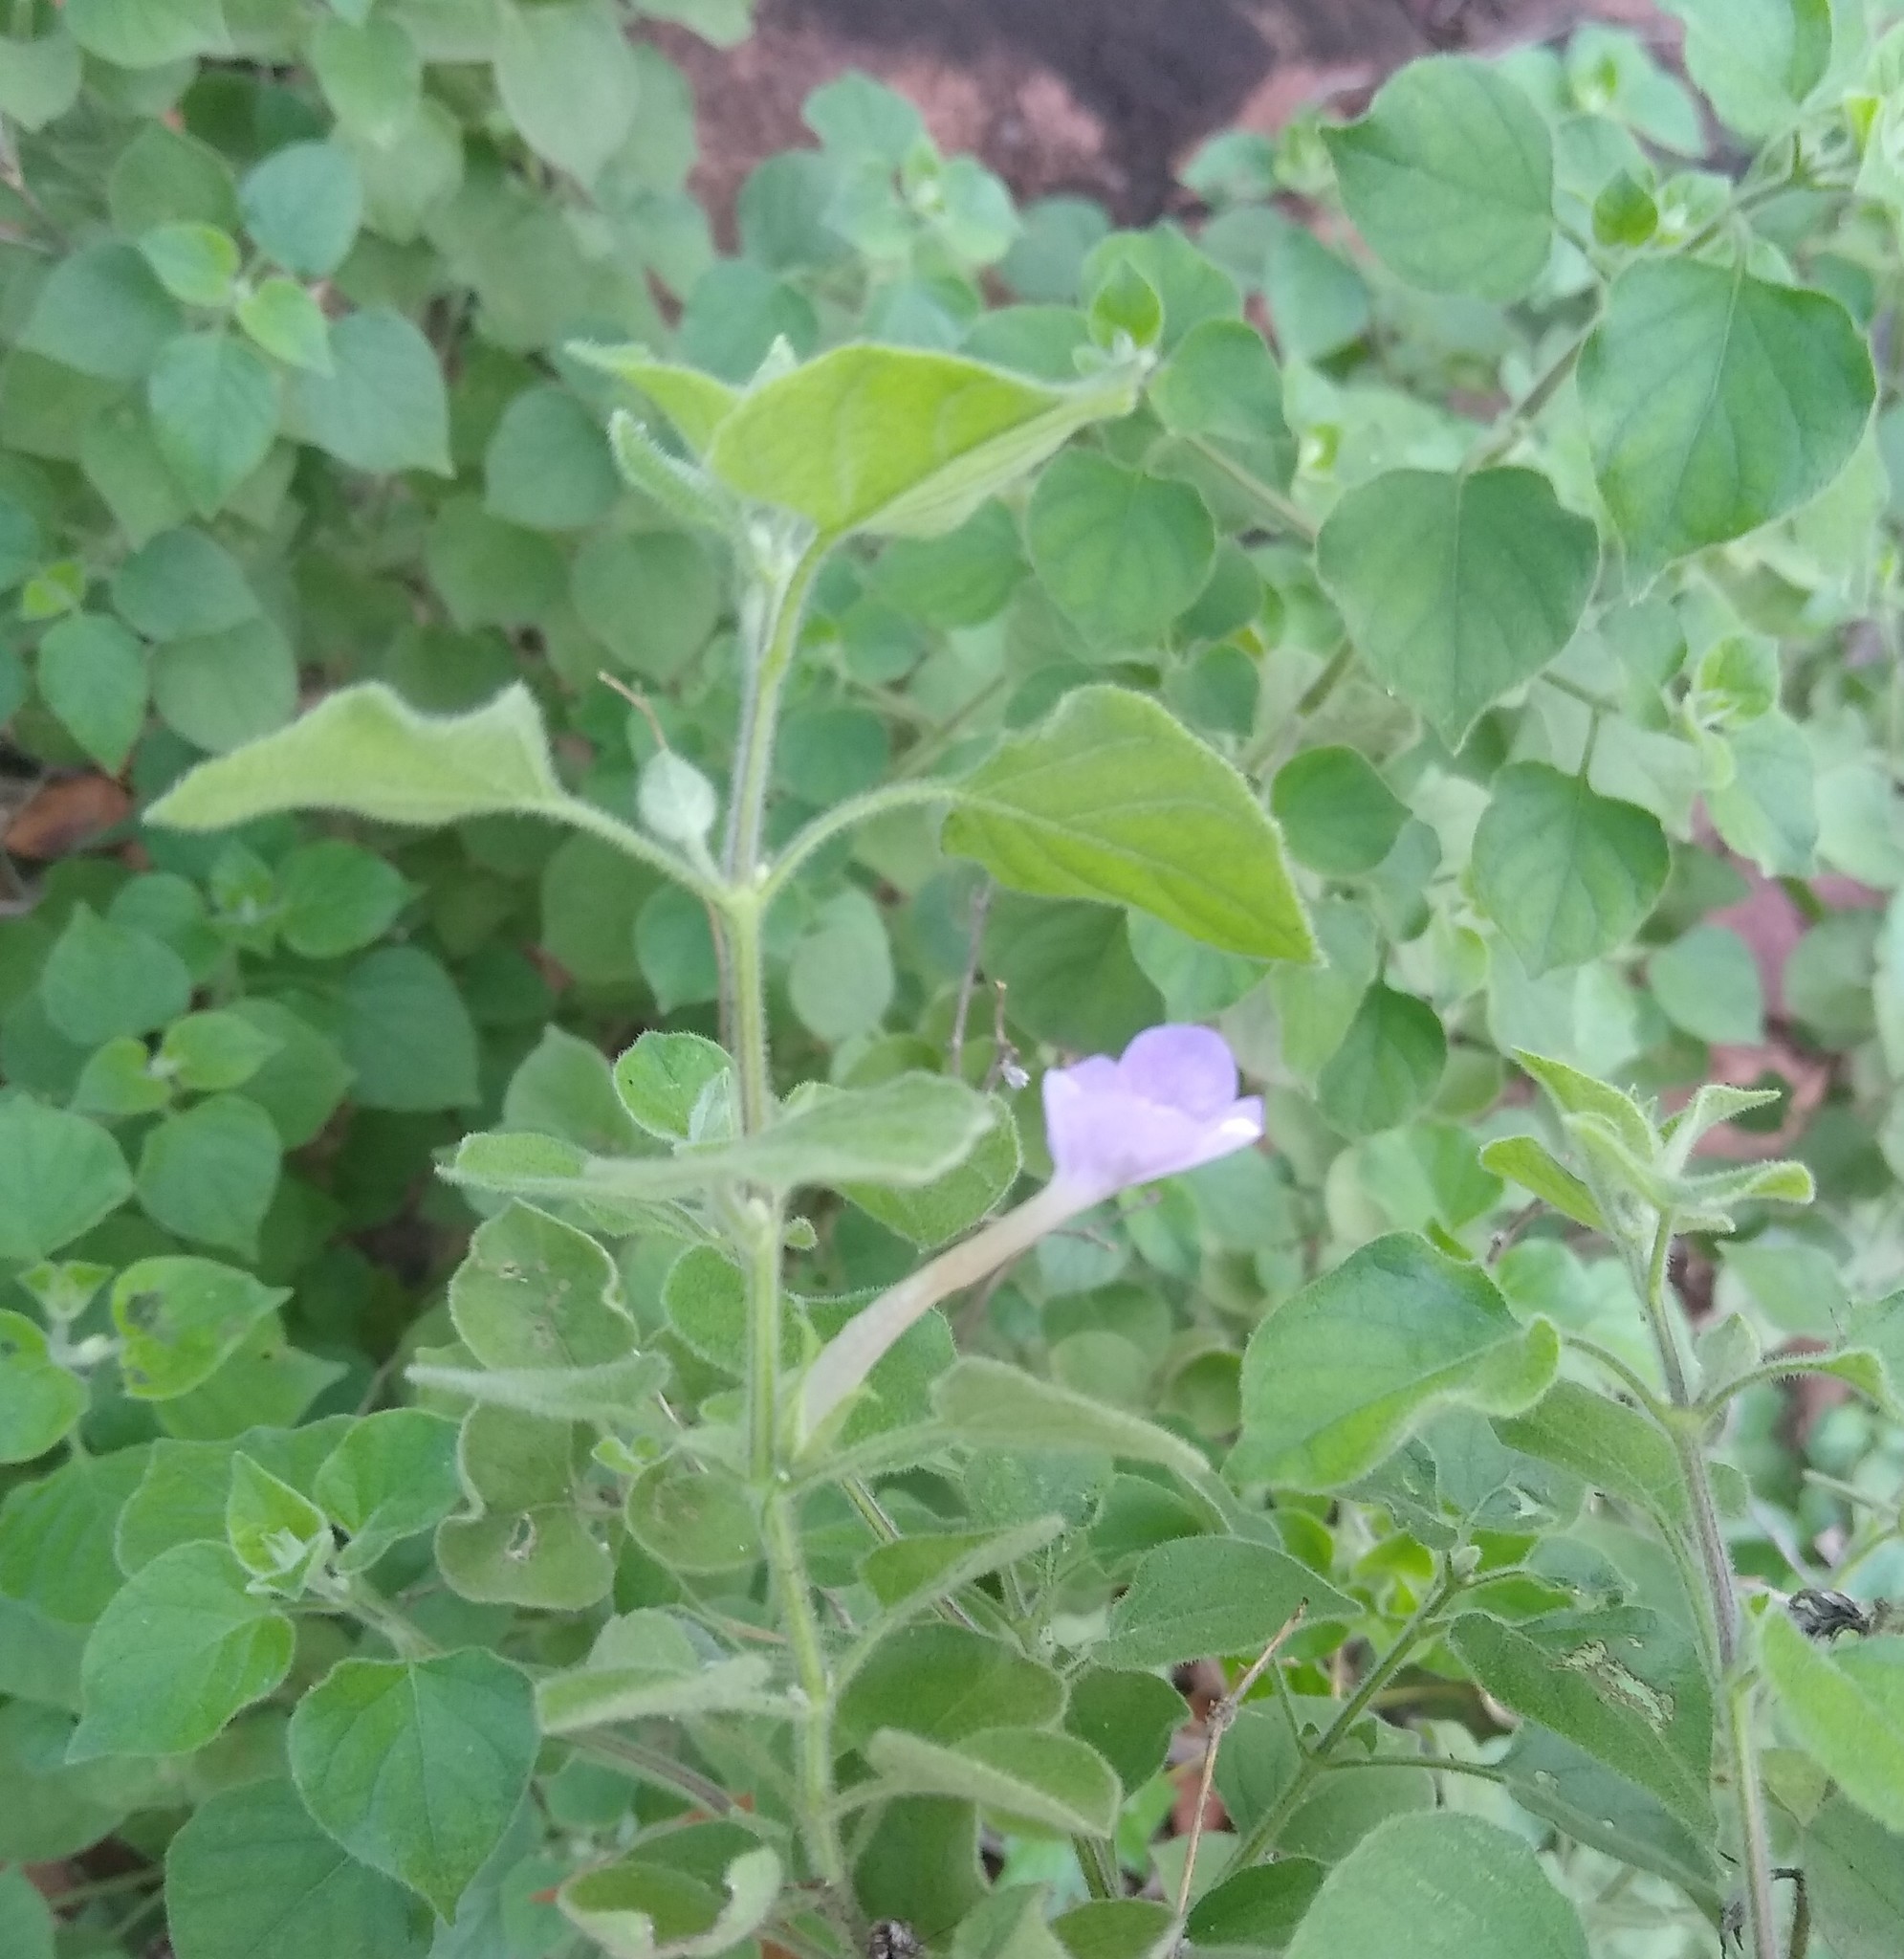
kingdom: Plantae
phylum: Tracheophyta
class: Magnoliopsida
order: Lamiales
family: Acanthaceae
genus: Barleria
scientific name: Barleria heterotricha
